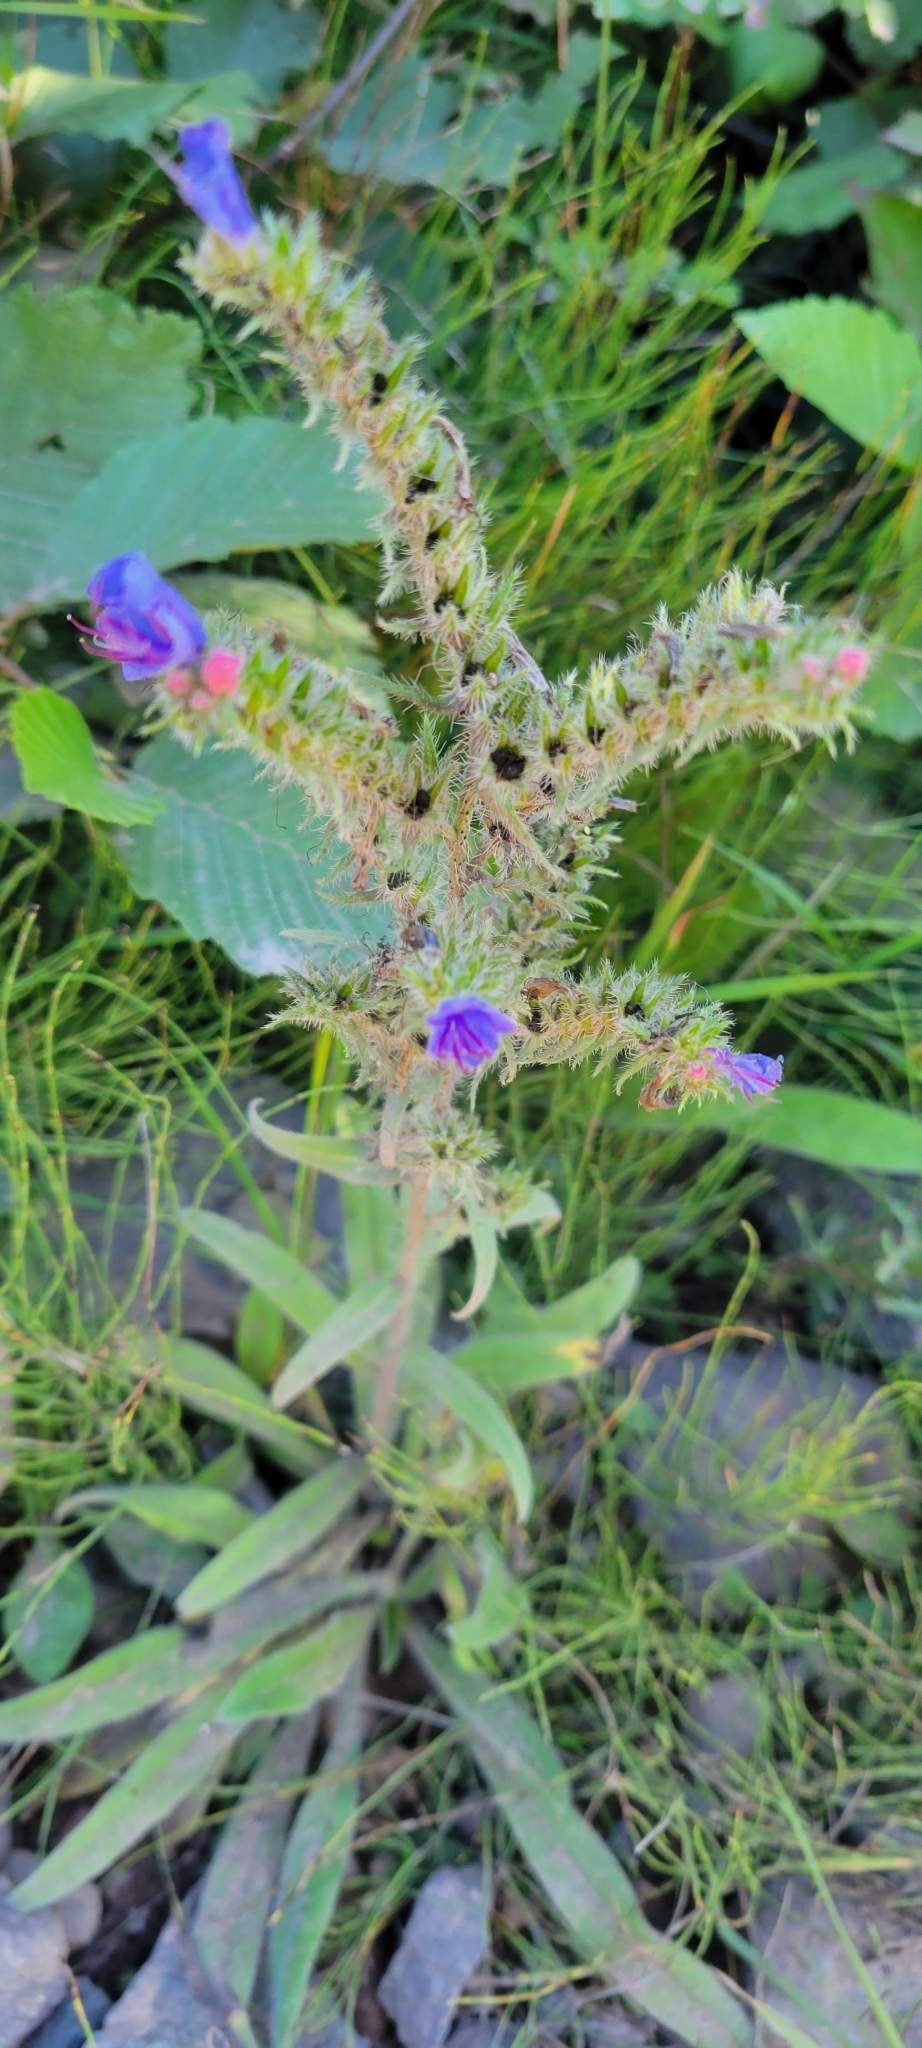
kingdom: Plantae
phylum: Tracheophyta
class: Magnoliopsida
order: Boraginales
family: Boraginaceae
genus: Echium
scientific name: Echium vulgare
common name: Common viper's bugloss
